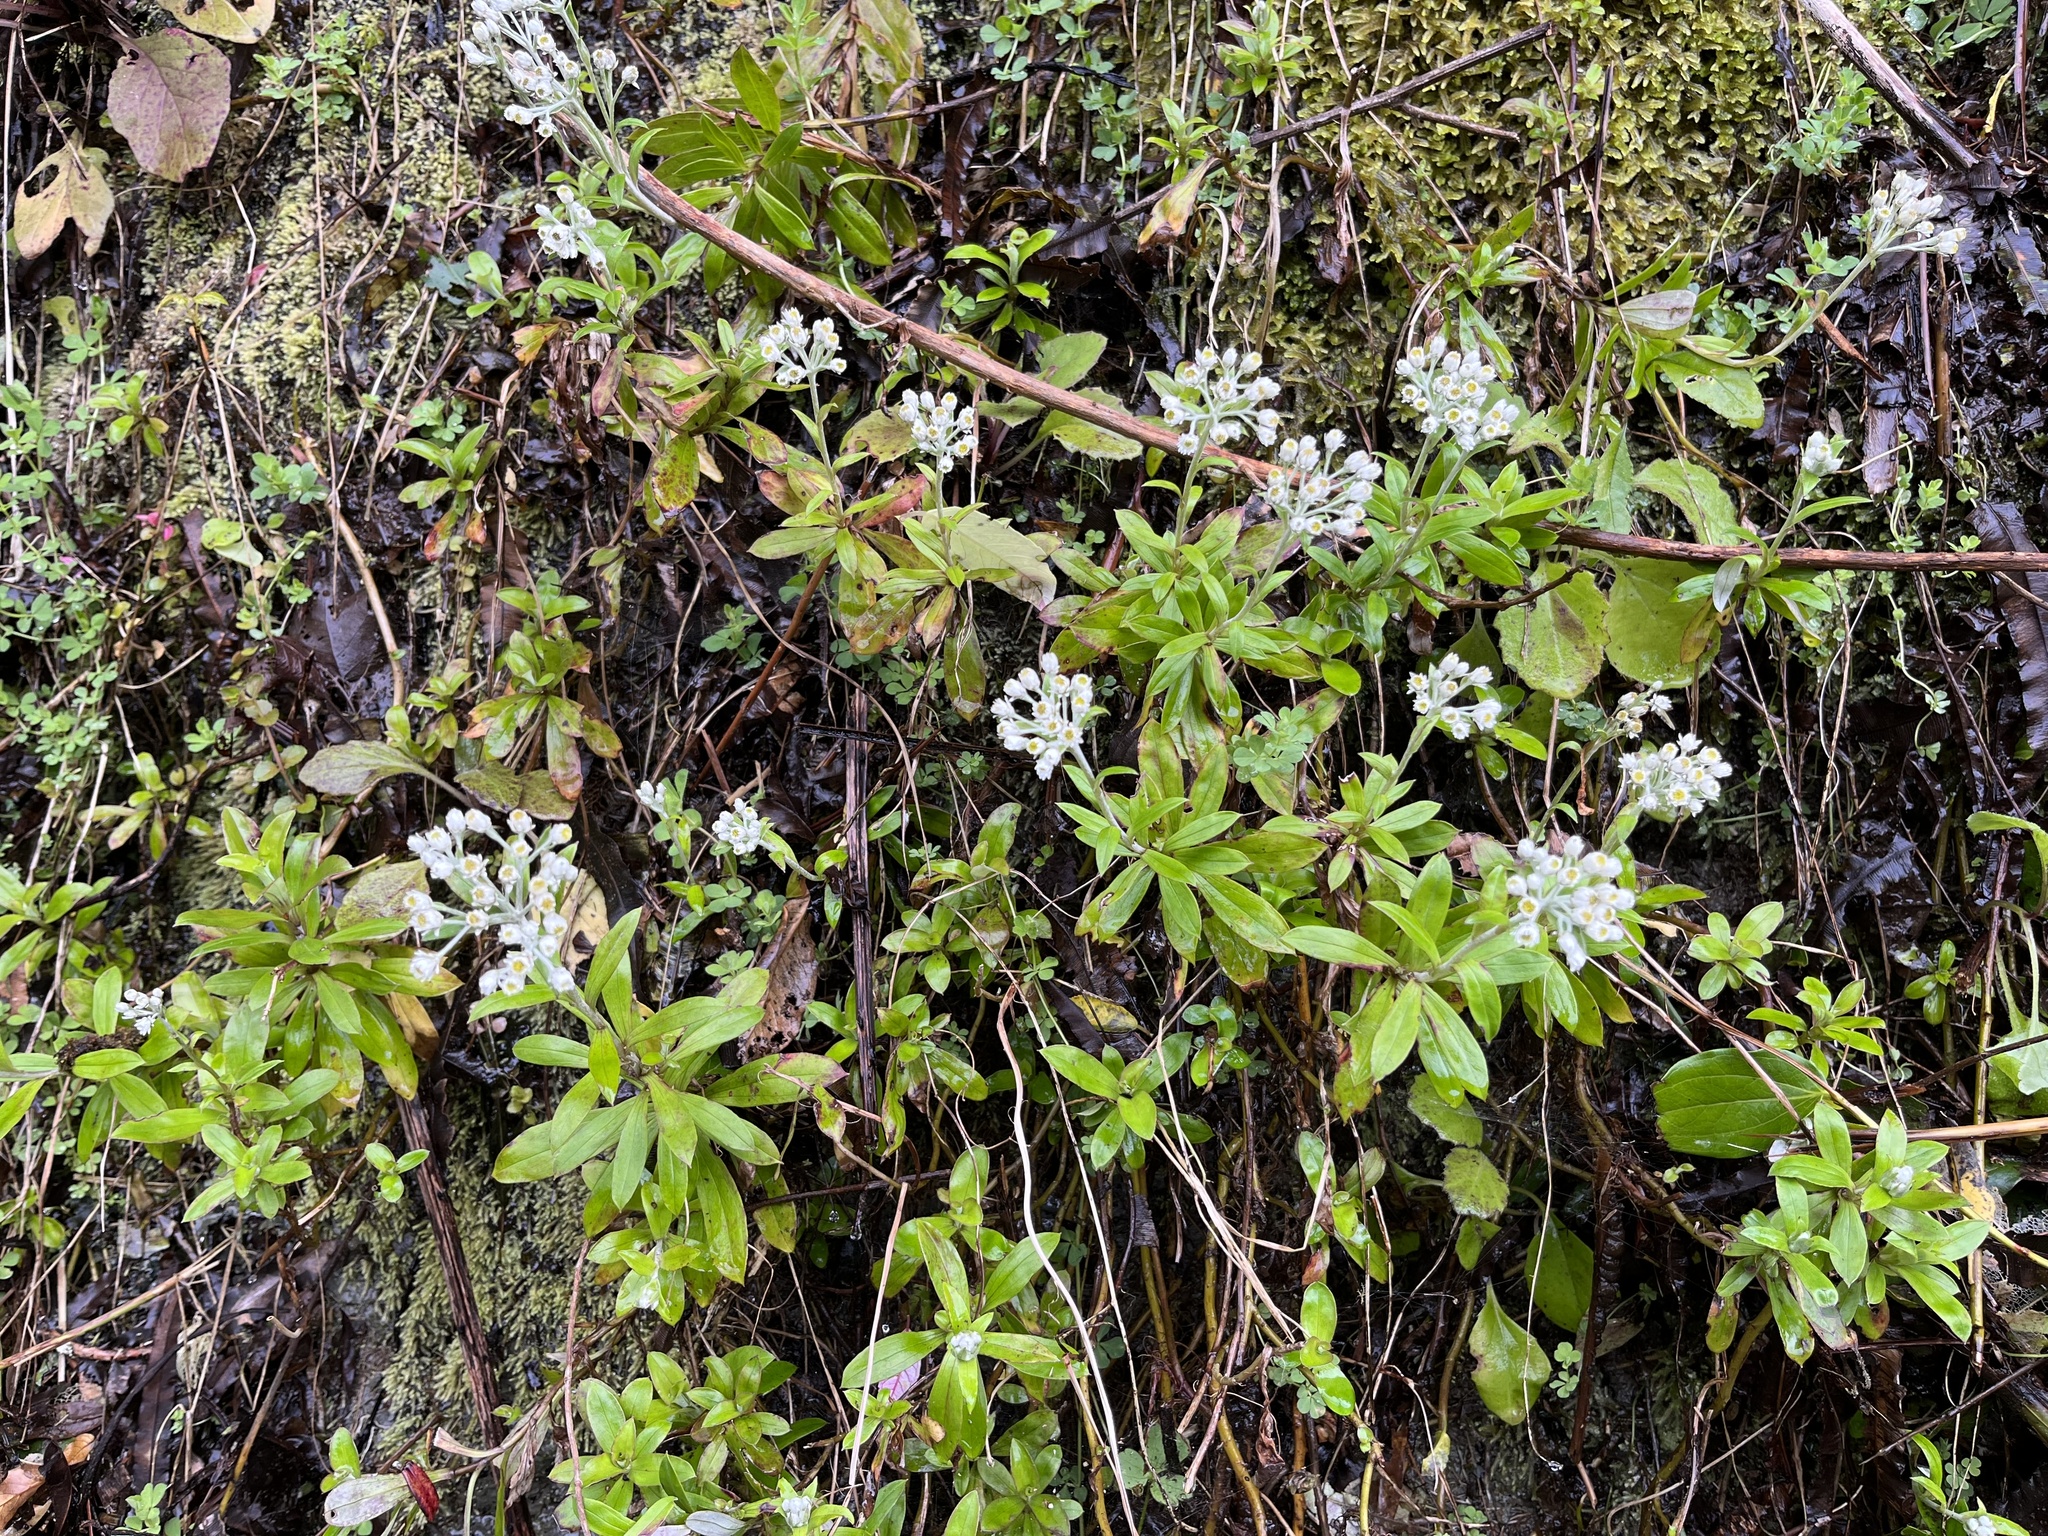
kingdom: Plantae
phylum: Tracheophyta
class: Magnoliopsida
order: Asterales
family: Asteraceae
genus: Anaphalioides
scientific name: Anaphalioides trinervis
